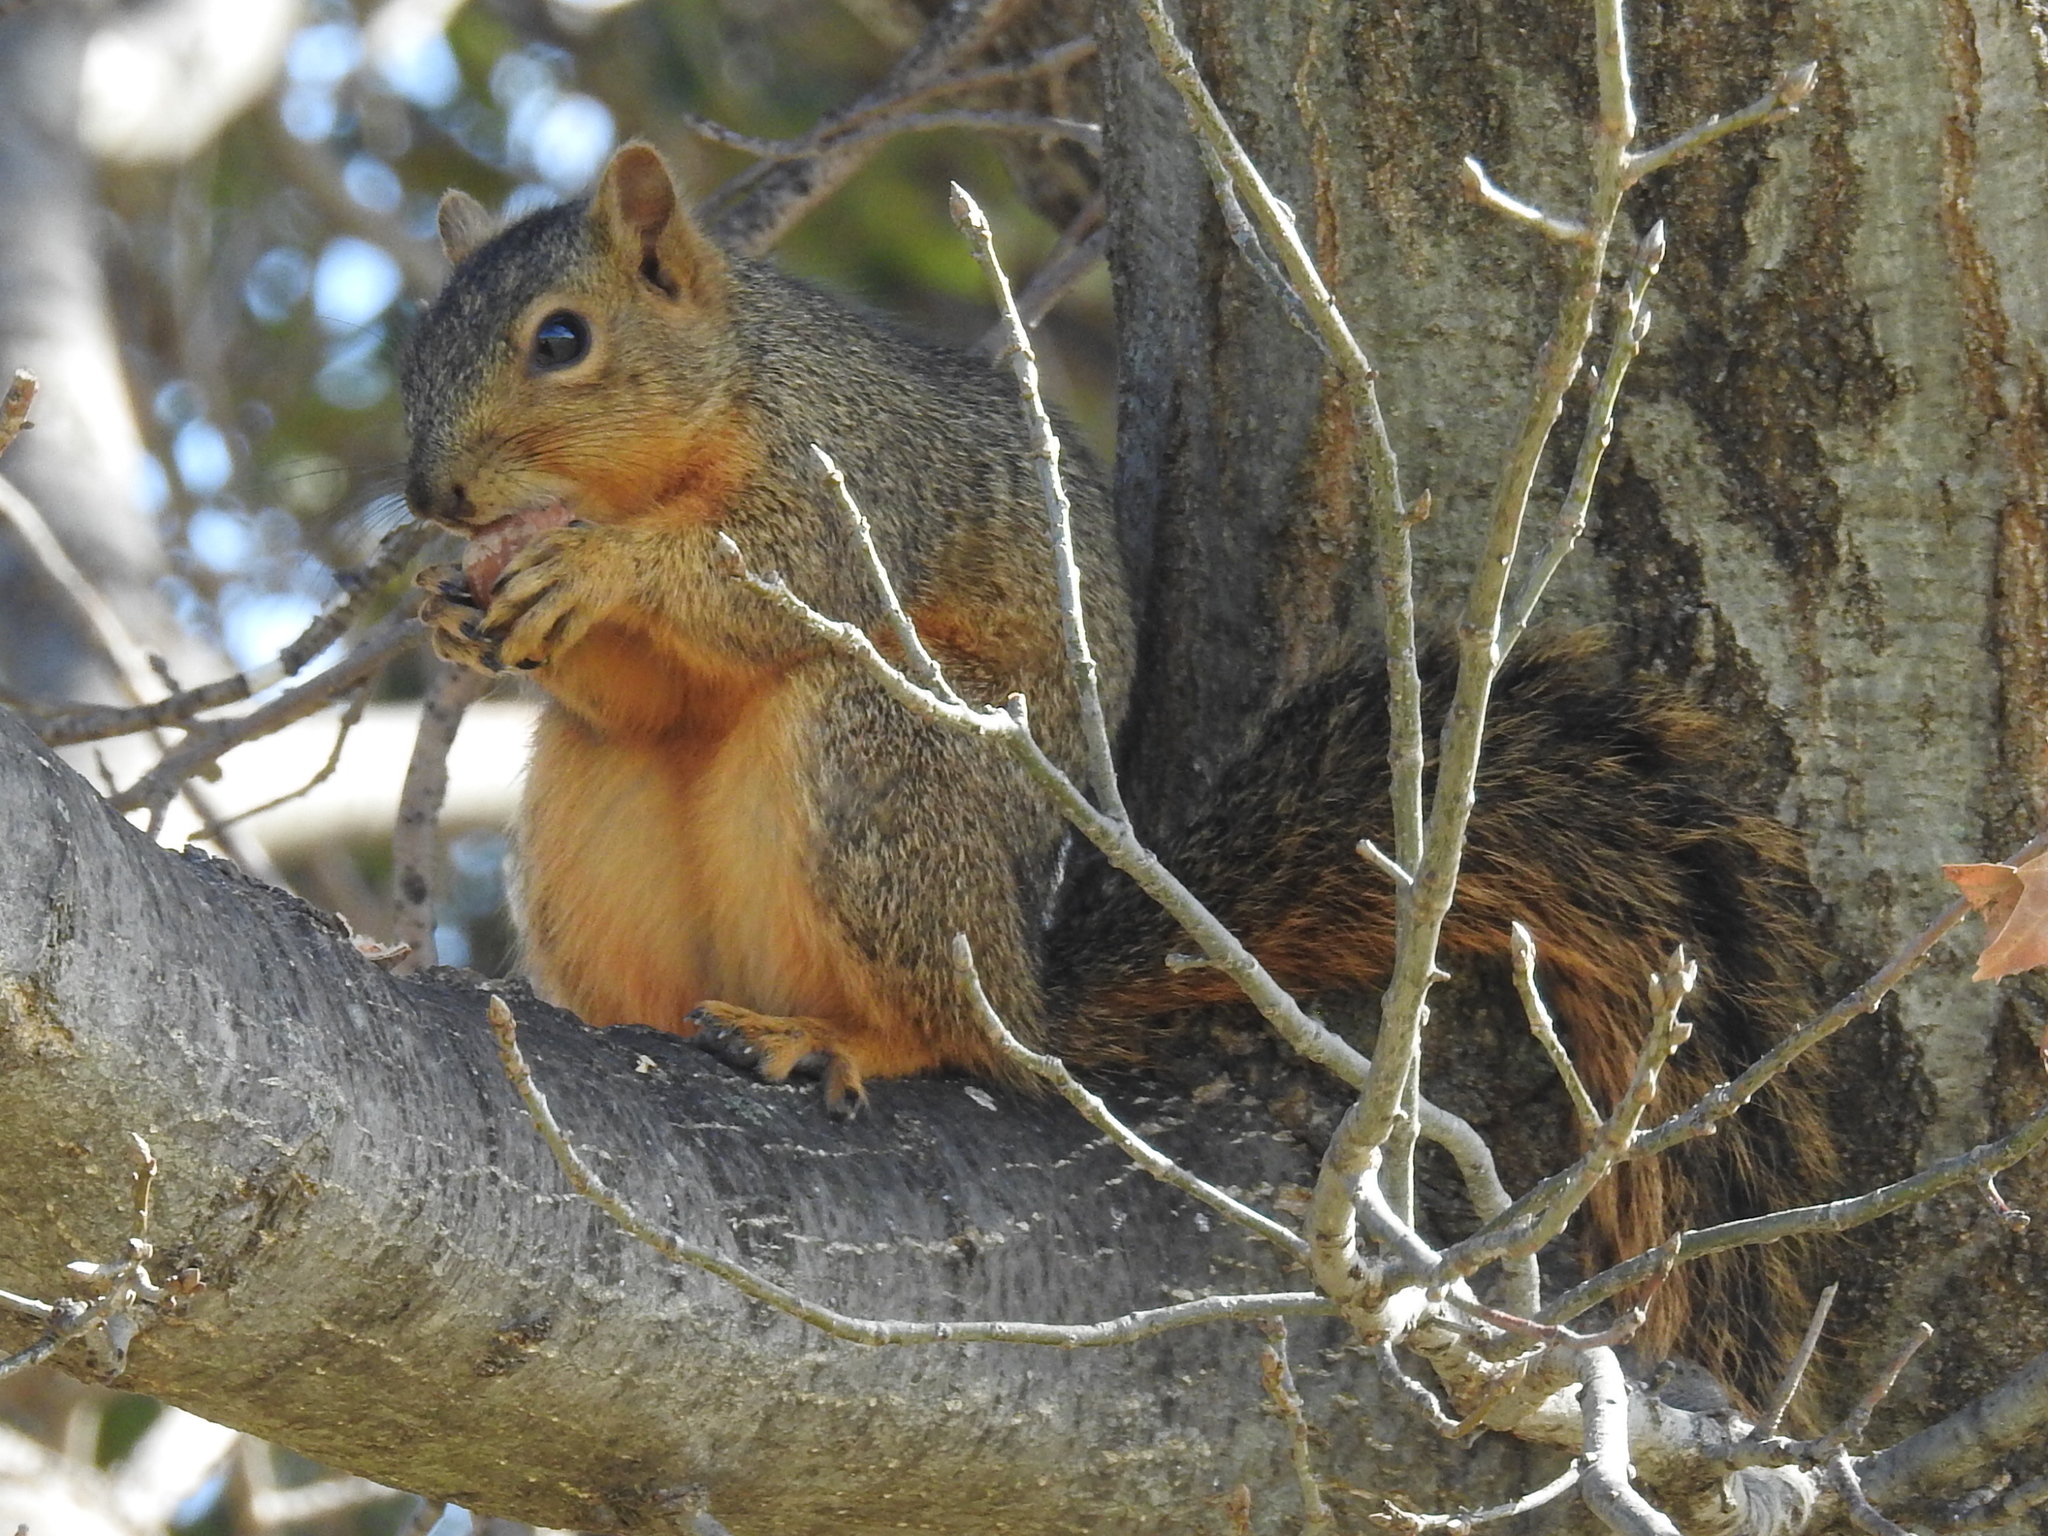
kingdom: Animalia
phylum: Chordata
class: Mammalia
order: Rodentia
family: Sciuridae
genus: Sciurus
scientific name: Sciurus niger
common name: Fox squirrel
